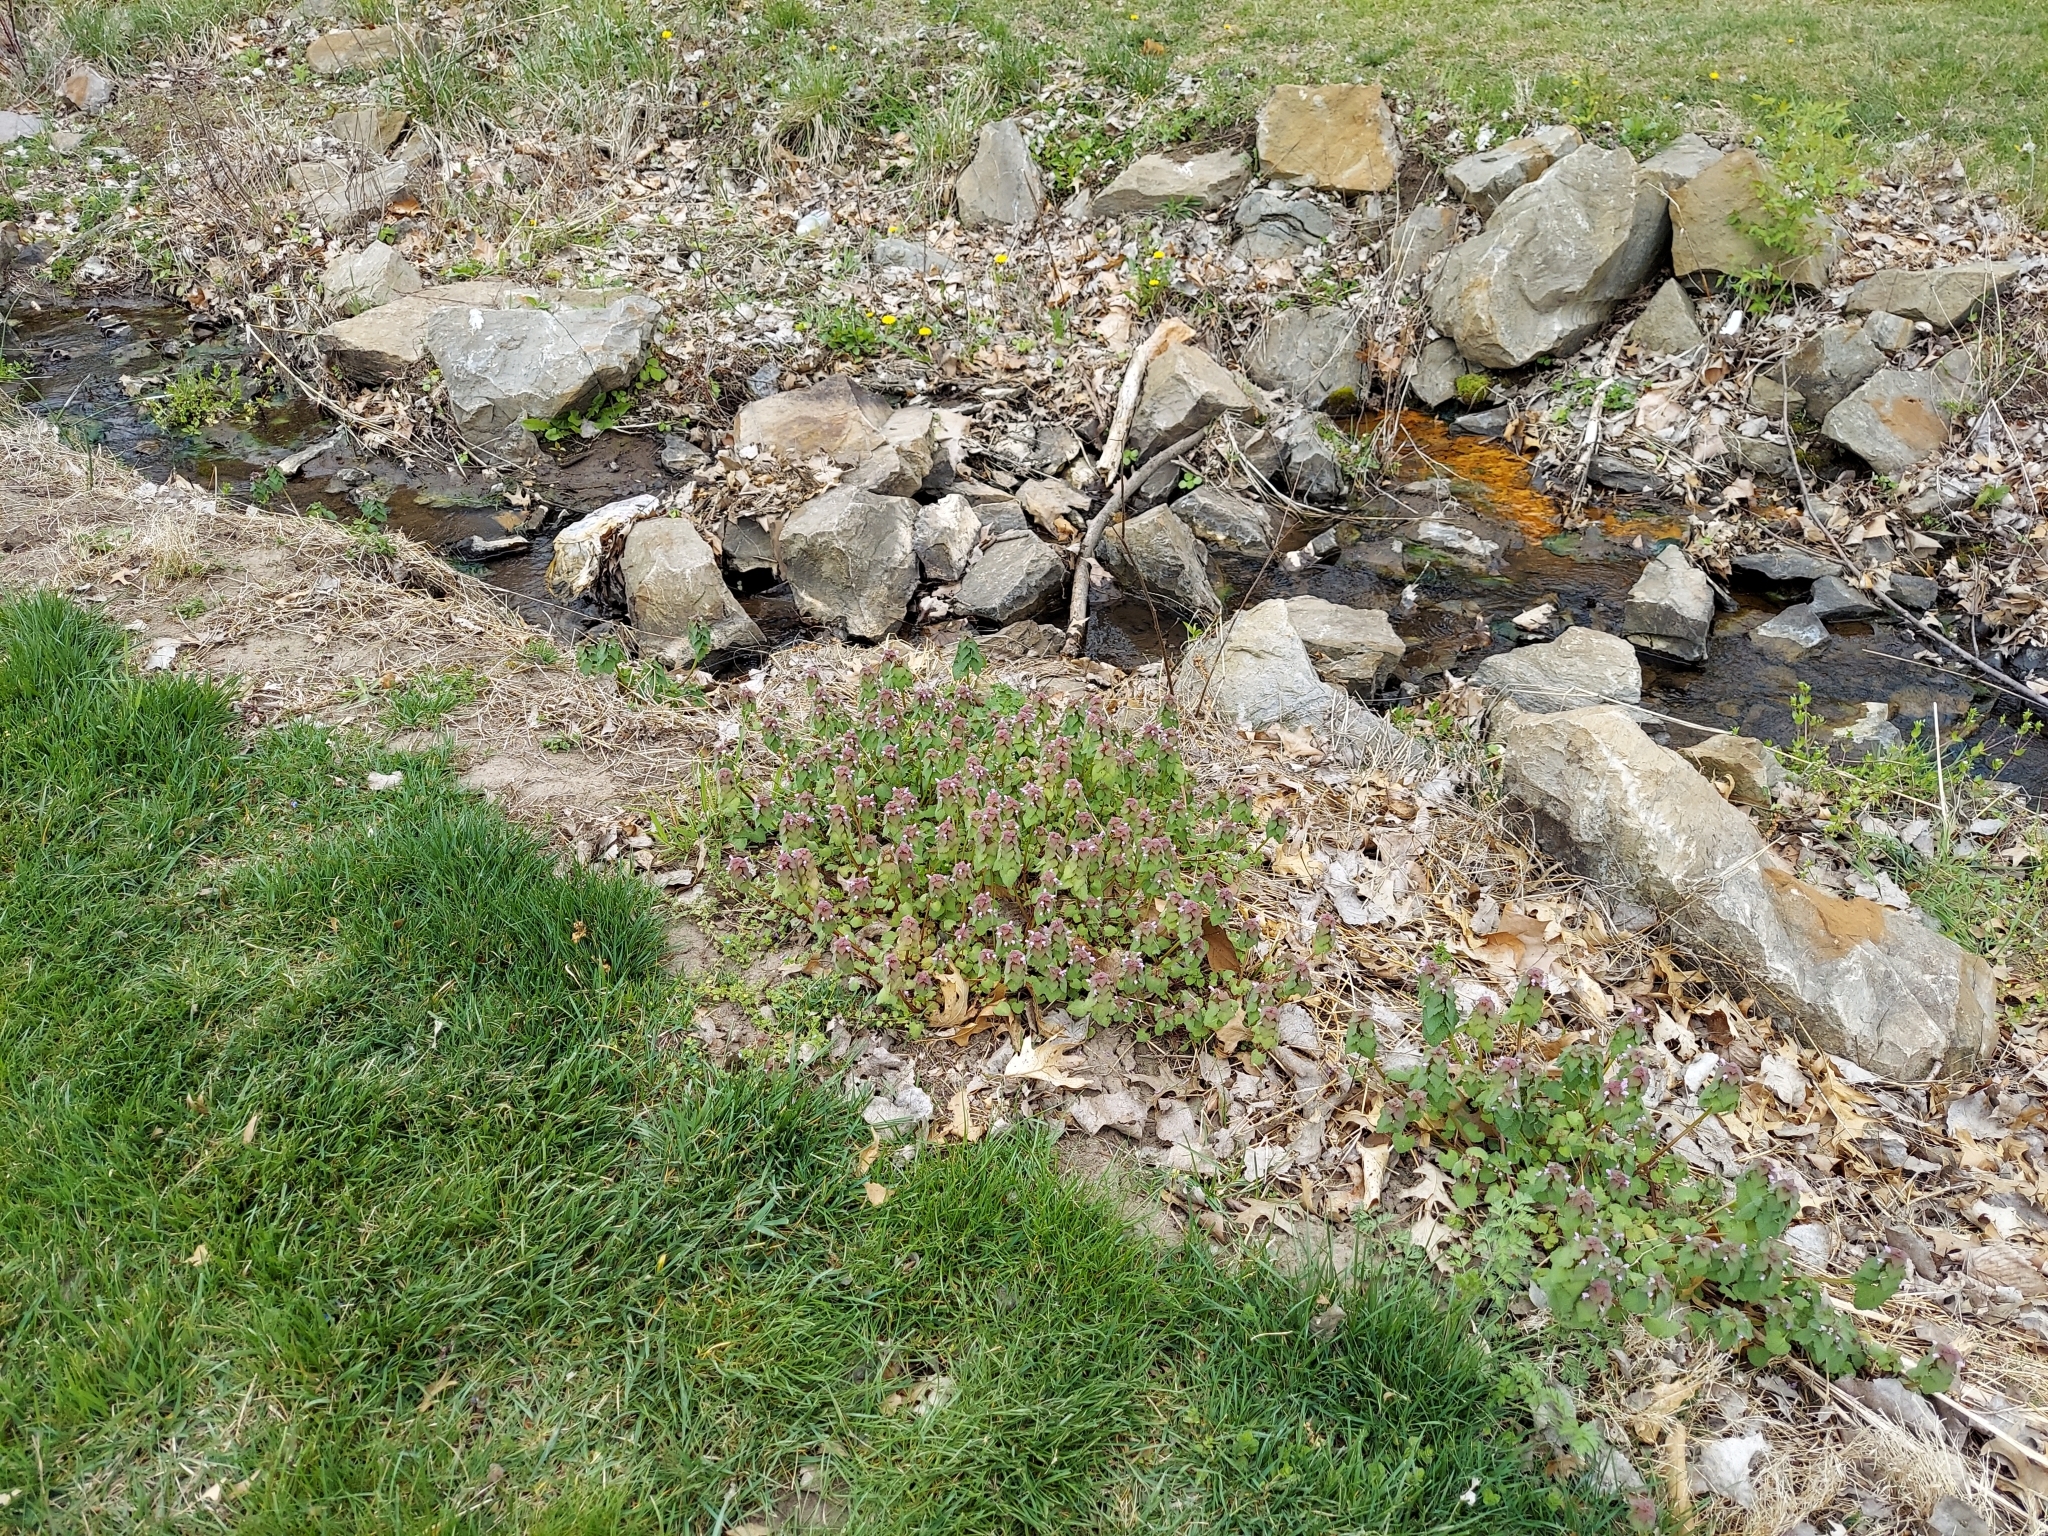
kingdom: Plantae
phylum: Tracheophyta
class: Magnoliopsida
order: Lamiales
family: Lamiaceae
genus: Lamium
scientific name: Lamium purpureum
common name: Red dead-nettle
